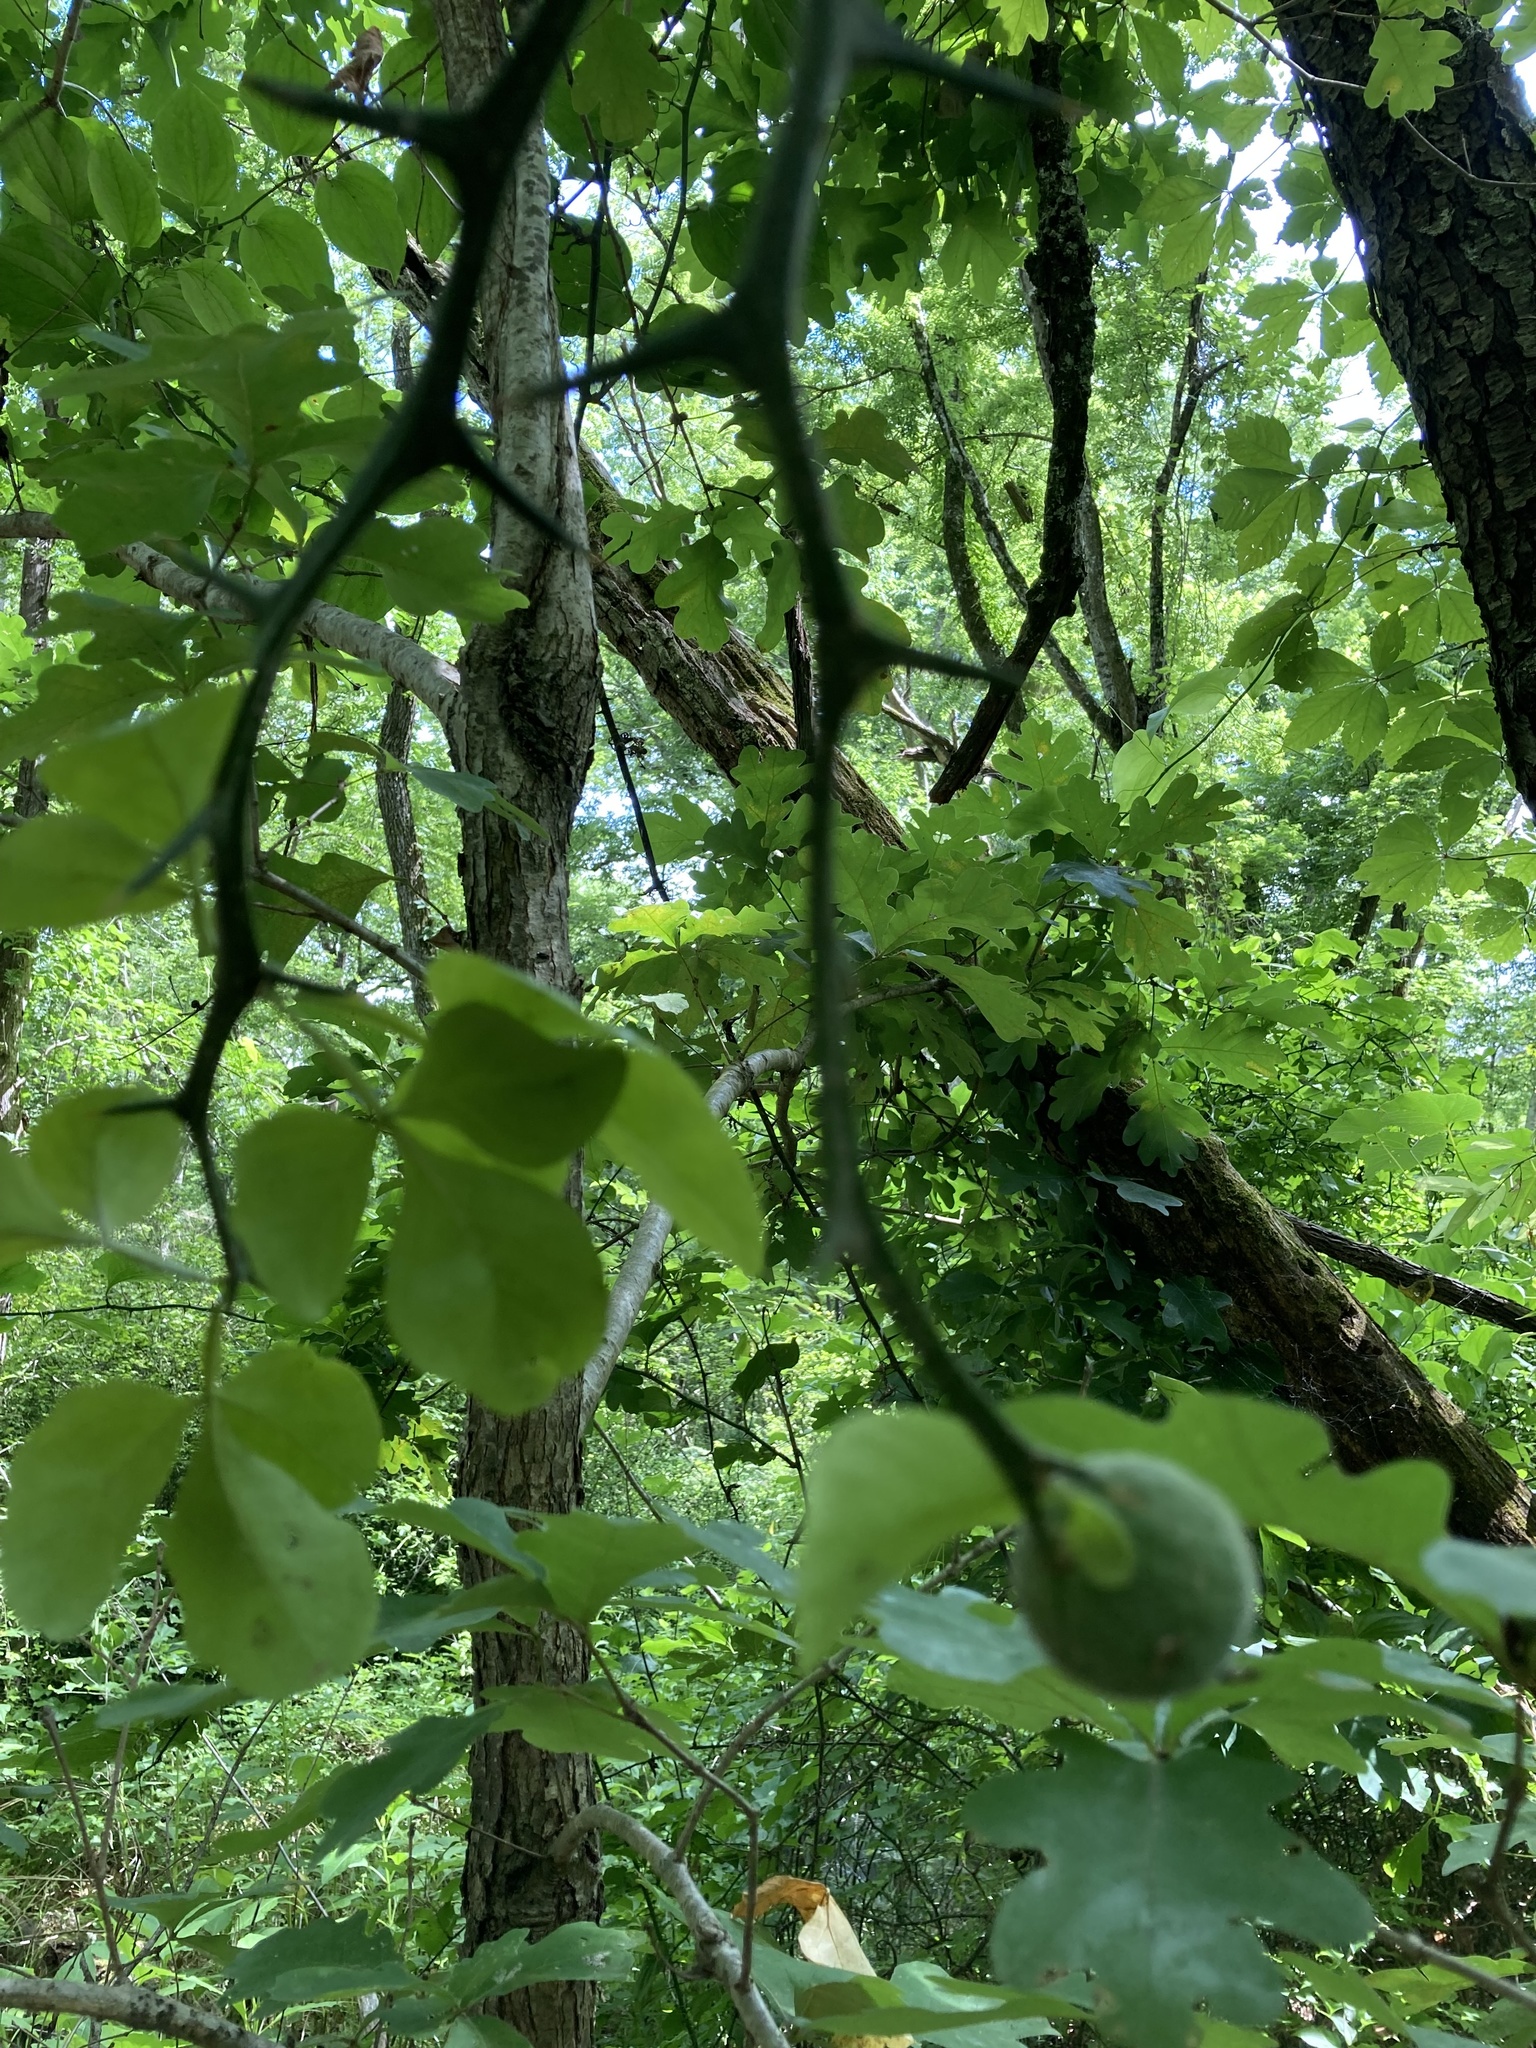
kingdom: Plantae
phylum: Tracheophyta
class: Magnoliopsida
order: Sapindales
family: Rutaceae
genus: Citrus
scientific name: Citrus trifoliata
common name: Japanese bitter-orange
